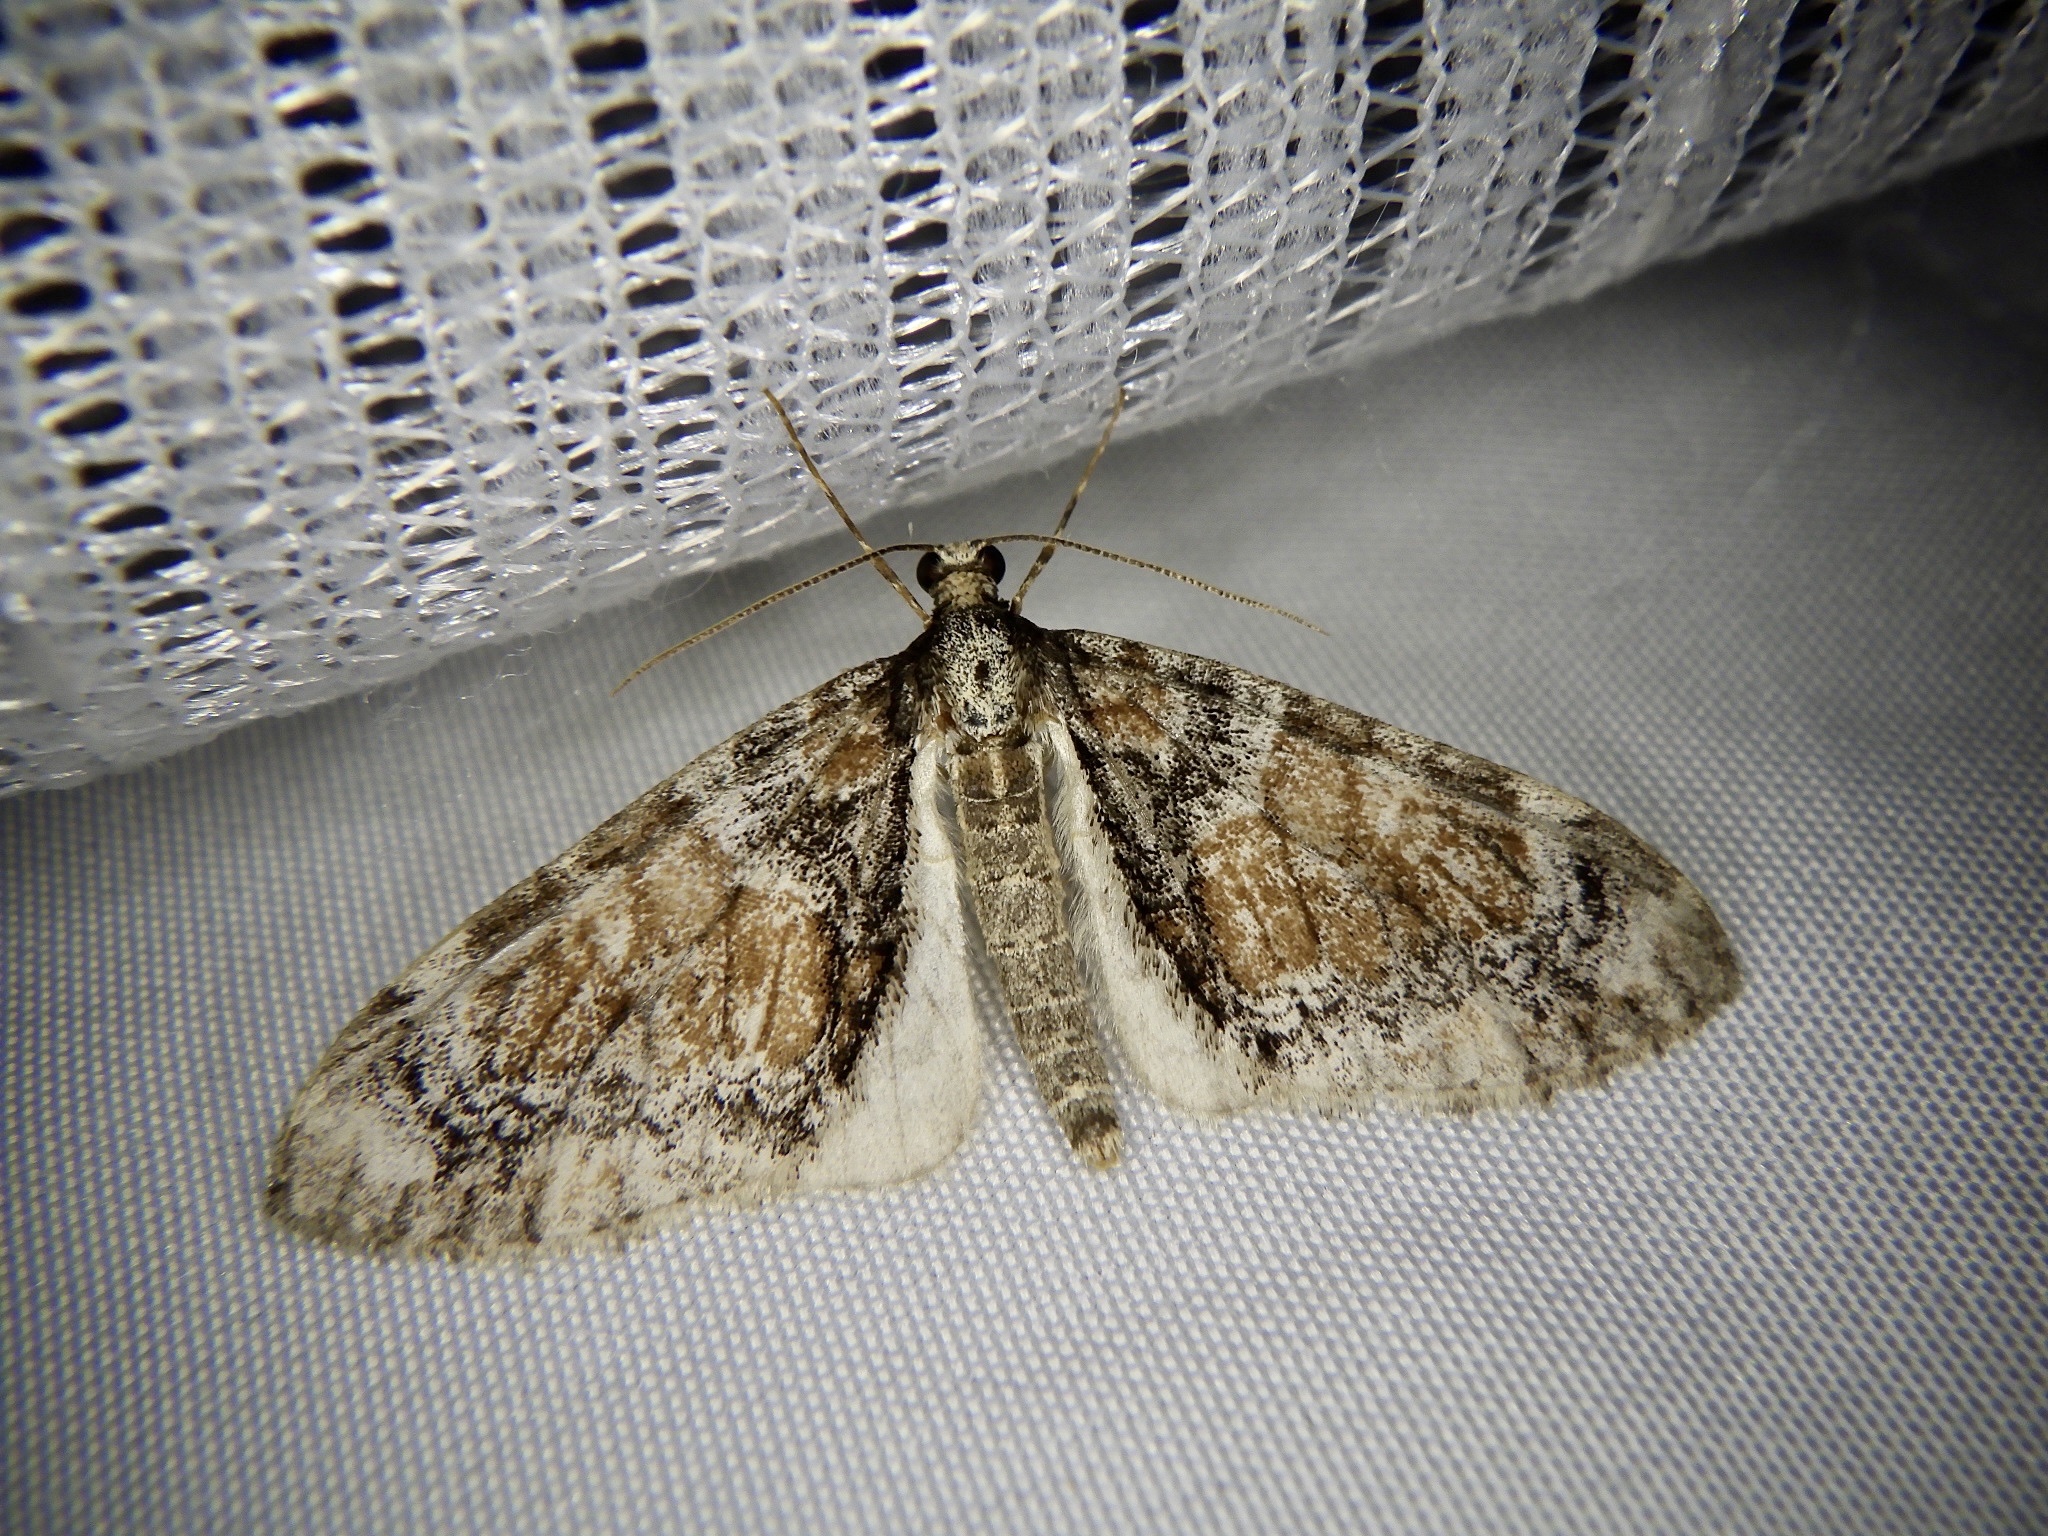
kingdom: Animalia
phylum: Arthropoda
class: Insecta
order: Lepidoptera
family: Geometridae
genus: Trichopteryx
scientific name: Trichopteryx ussurica
